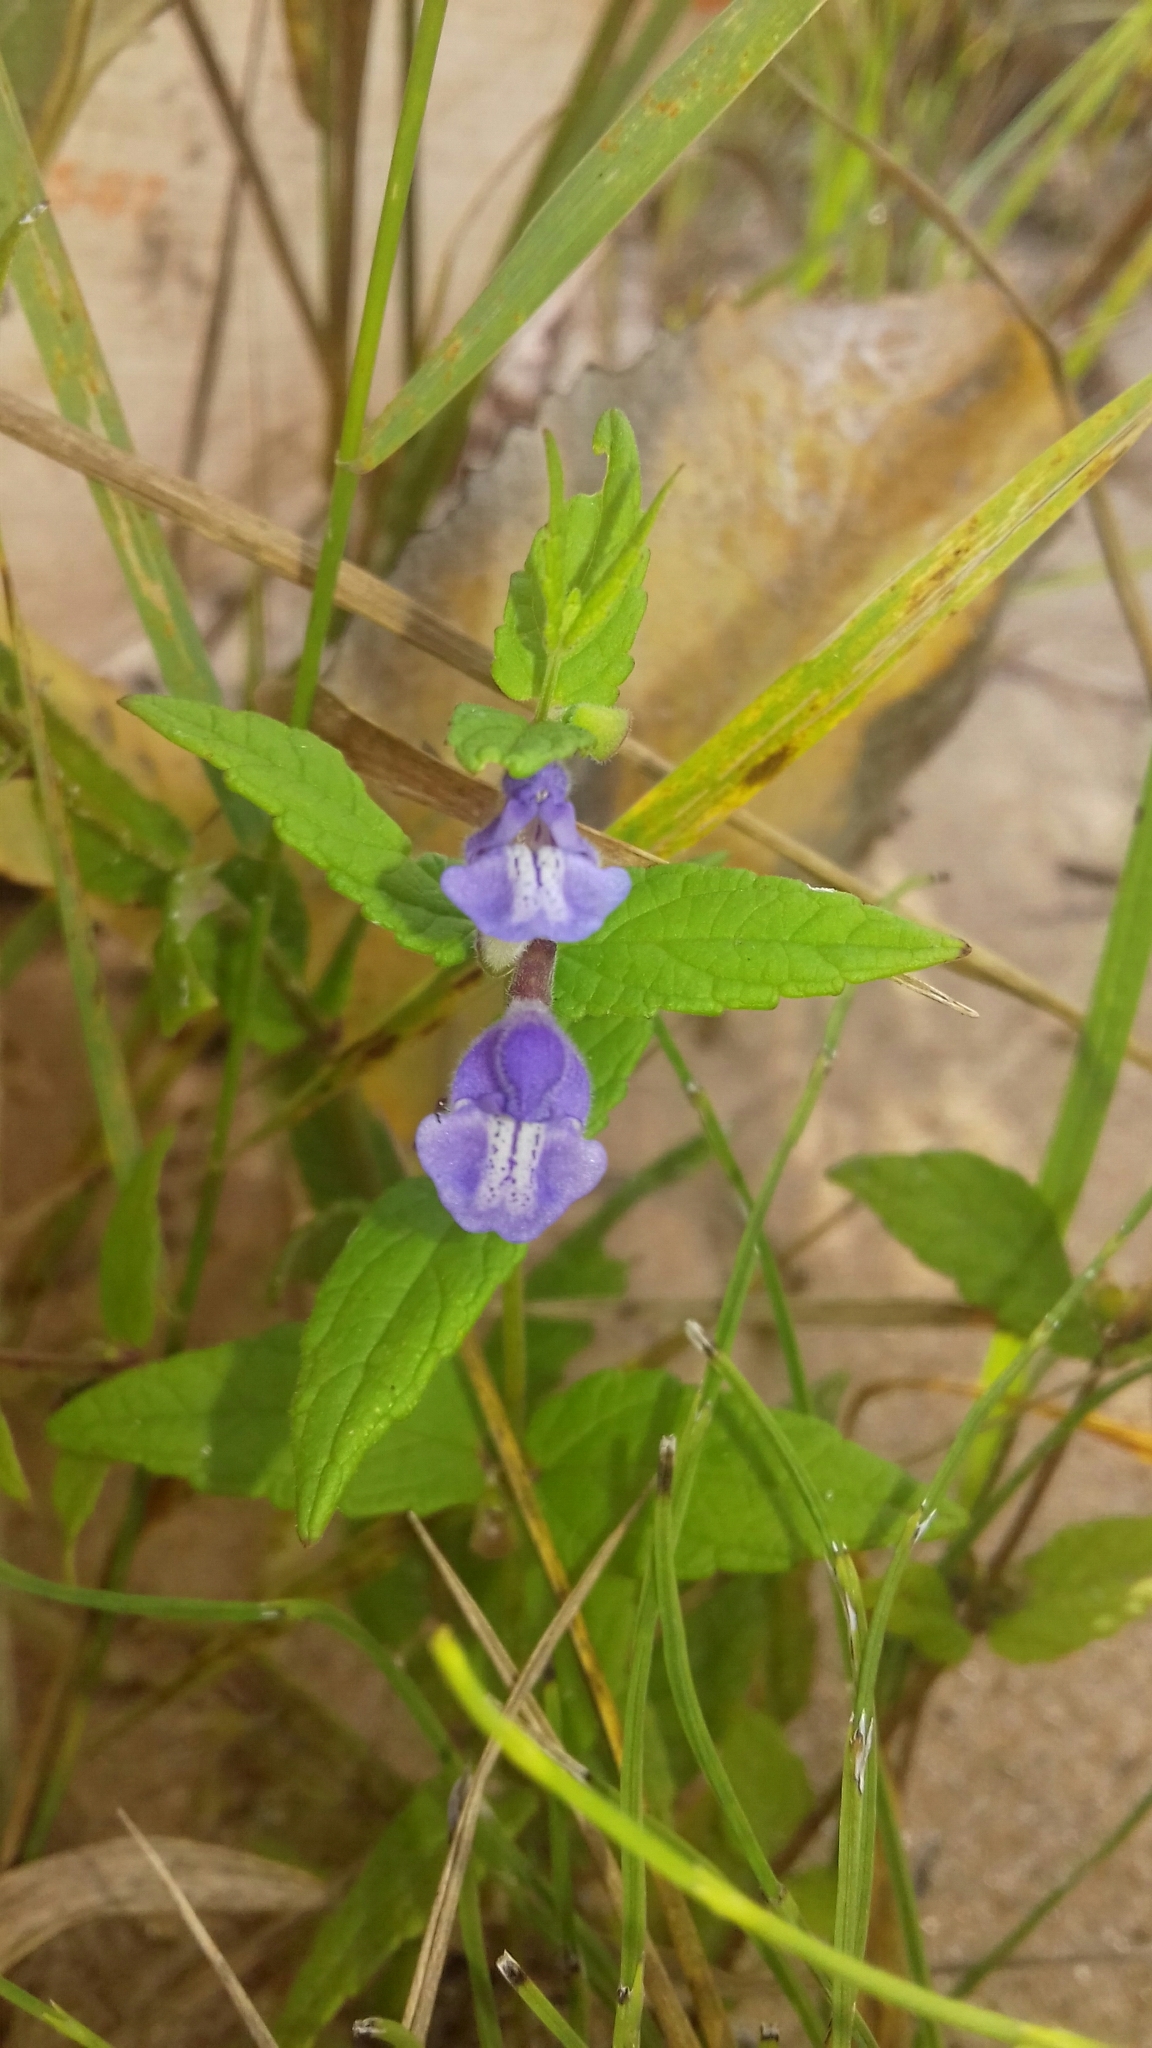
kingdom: Plantae
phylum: Tracheophyta
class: Magnoliopsida
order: Lamiales
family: Lamiaceae
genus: Scutellaria
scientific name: Scutellaria galericulata
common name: Skullcap
